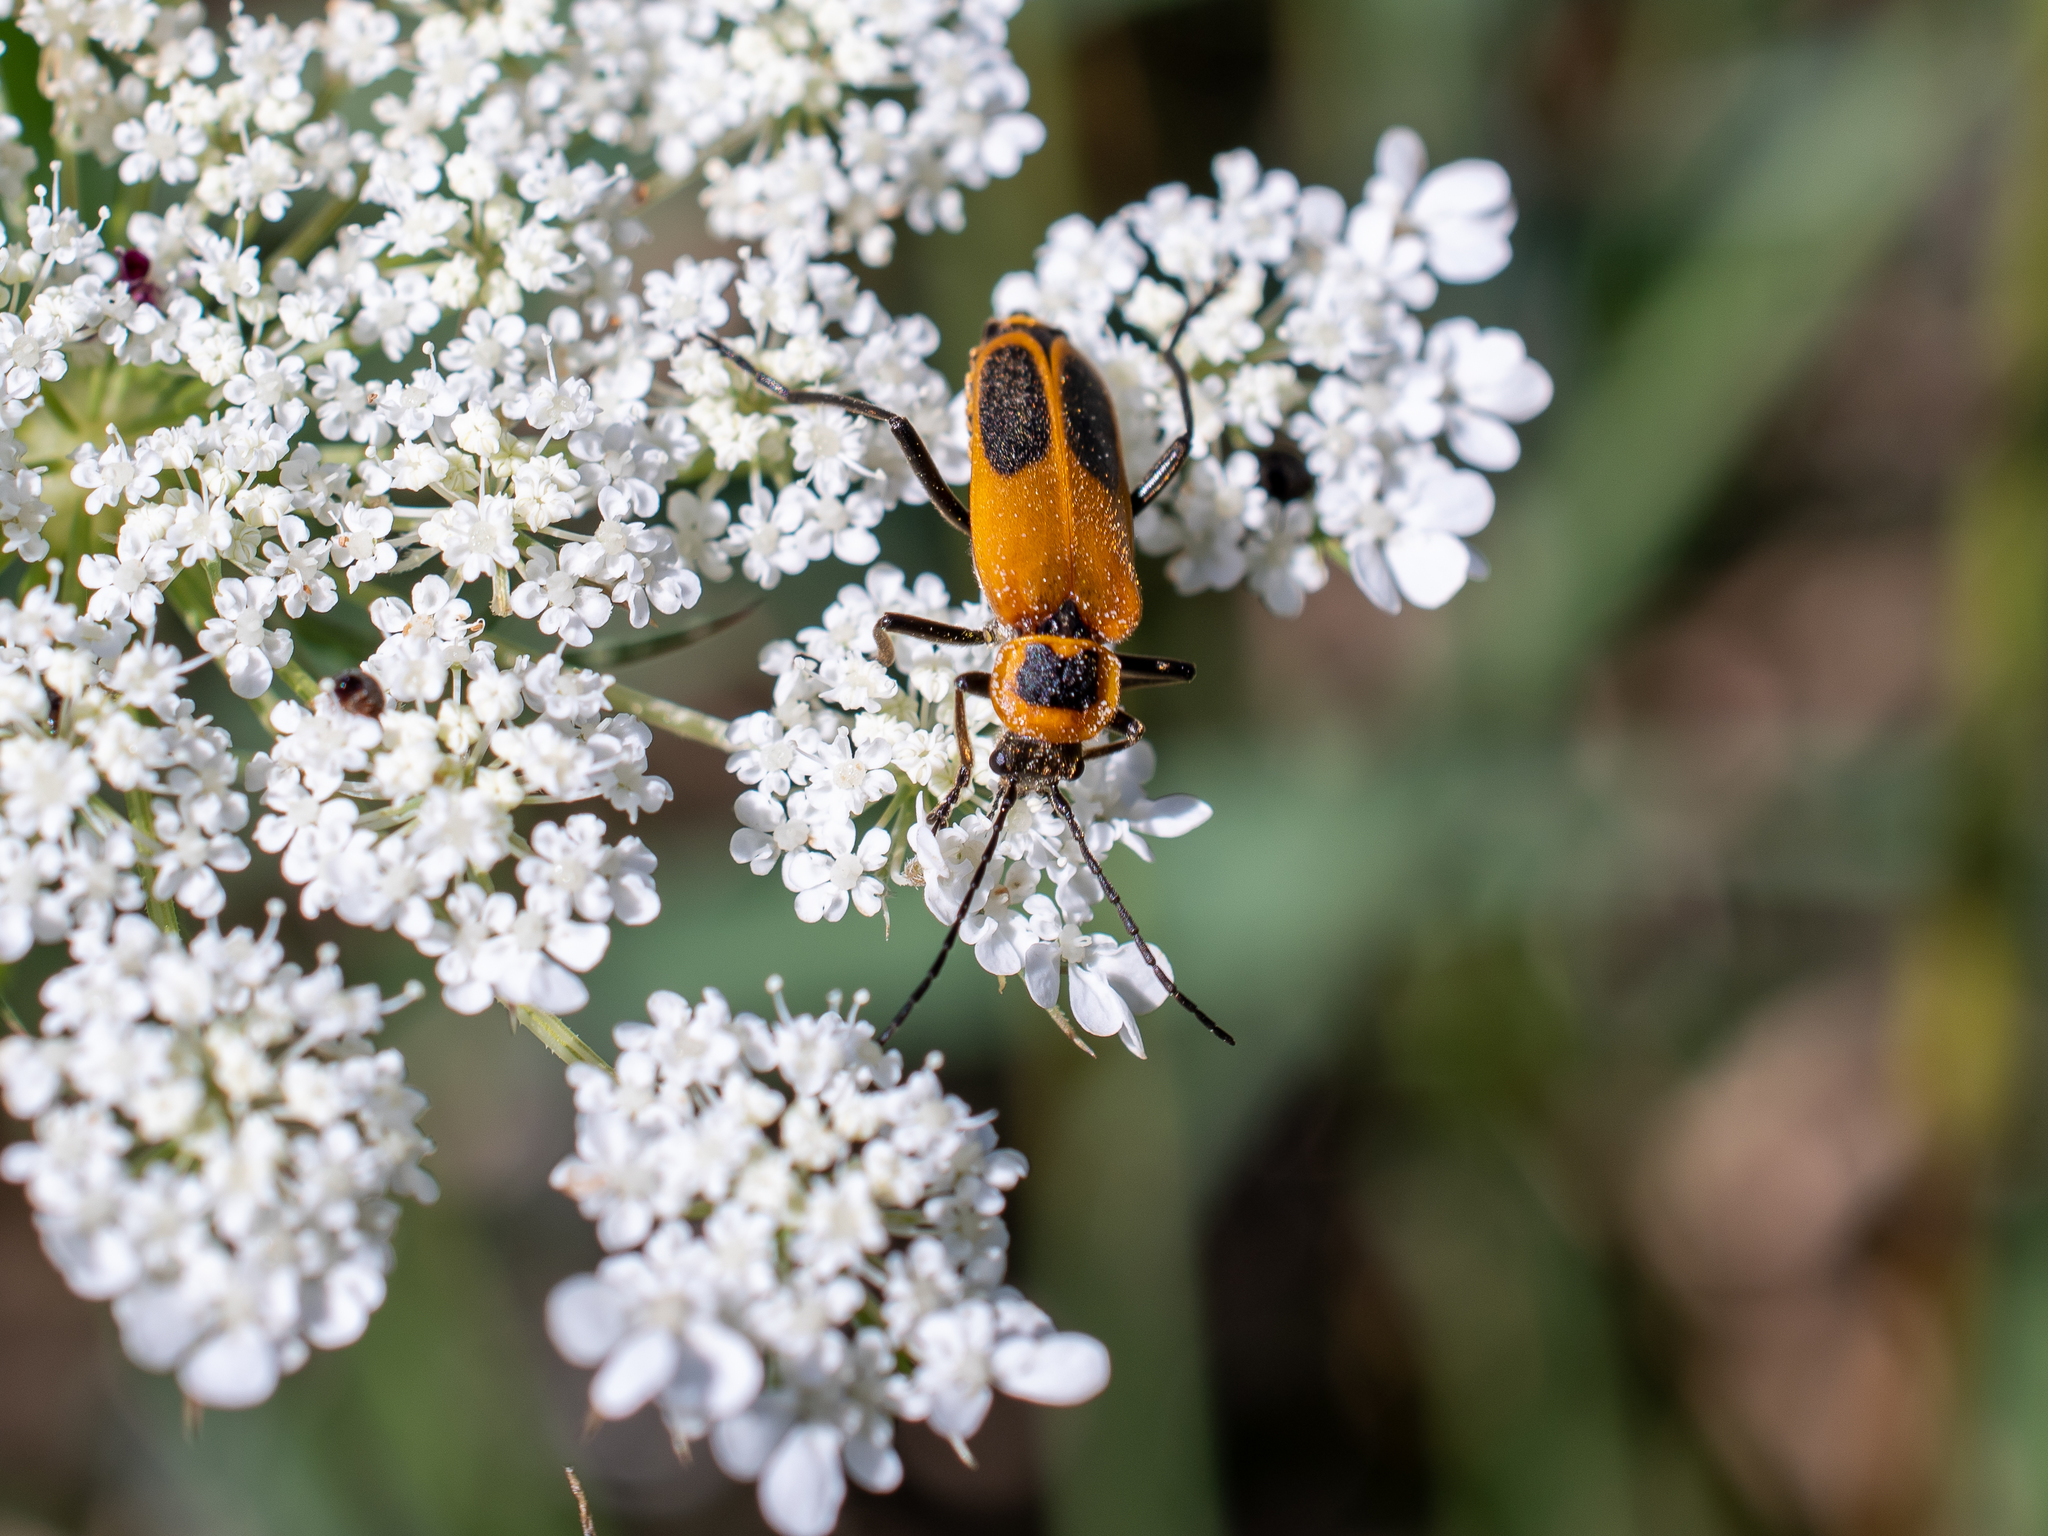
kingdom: Animalia
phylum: Arthropoda
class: Insecta
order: Coleoptera
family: Cantharidae
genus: Chauliognathus
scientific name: Chauliognathus pensylvanicus
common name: Goldenrod soldier beetle
